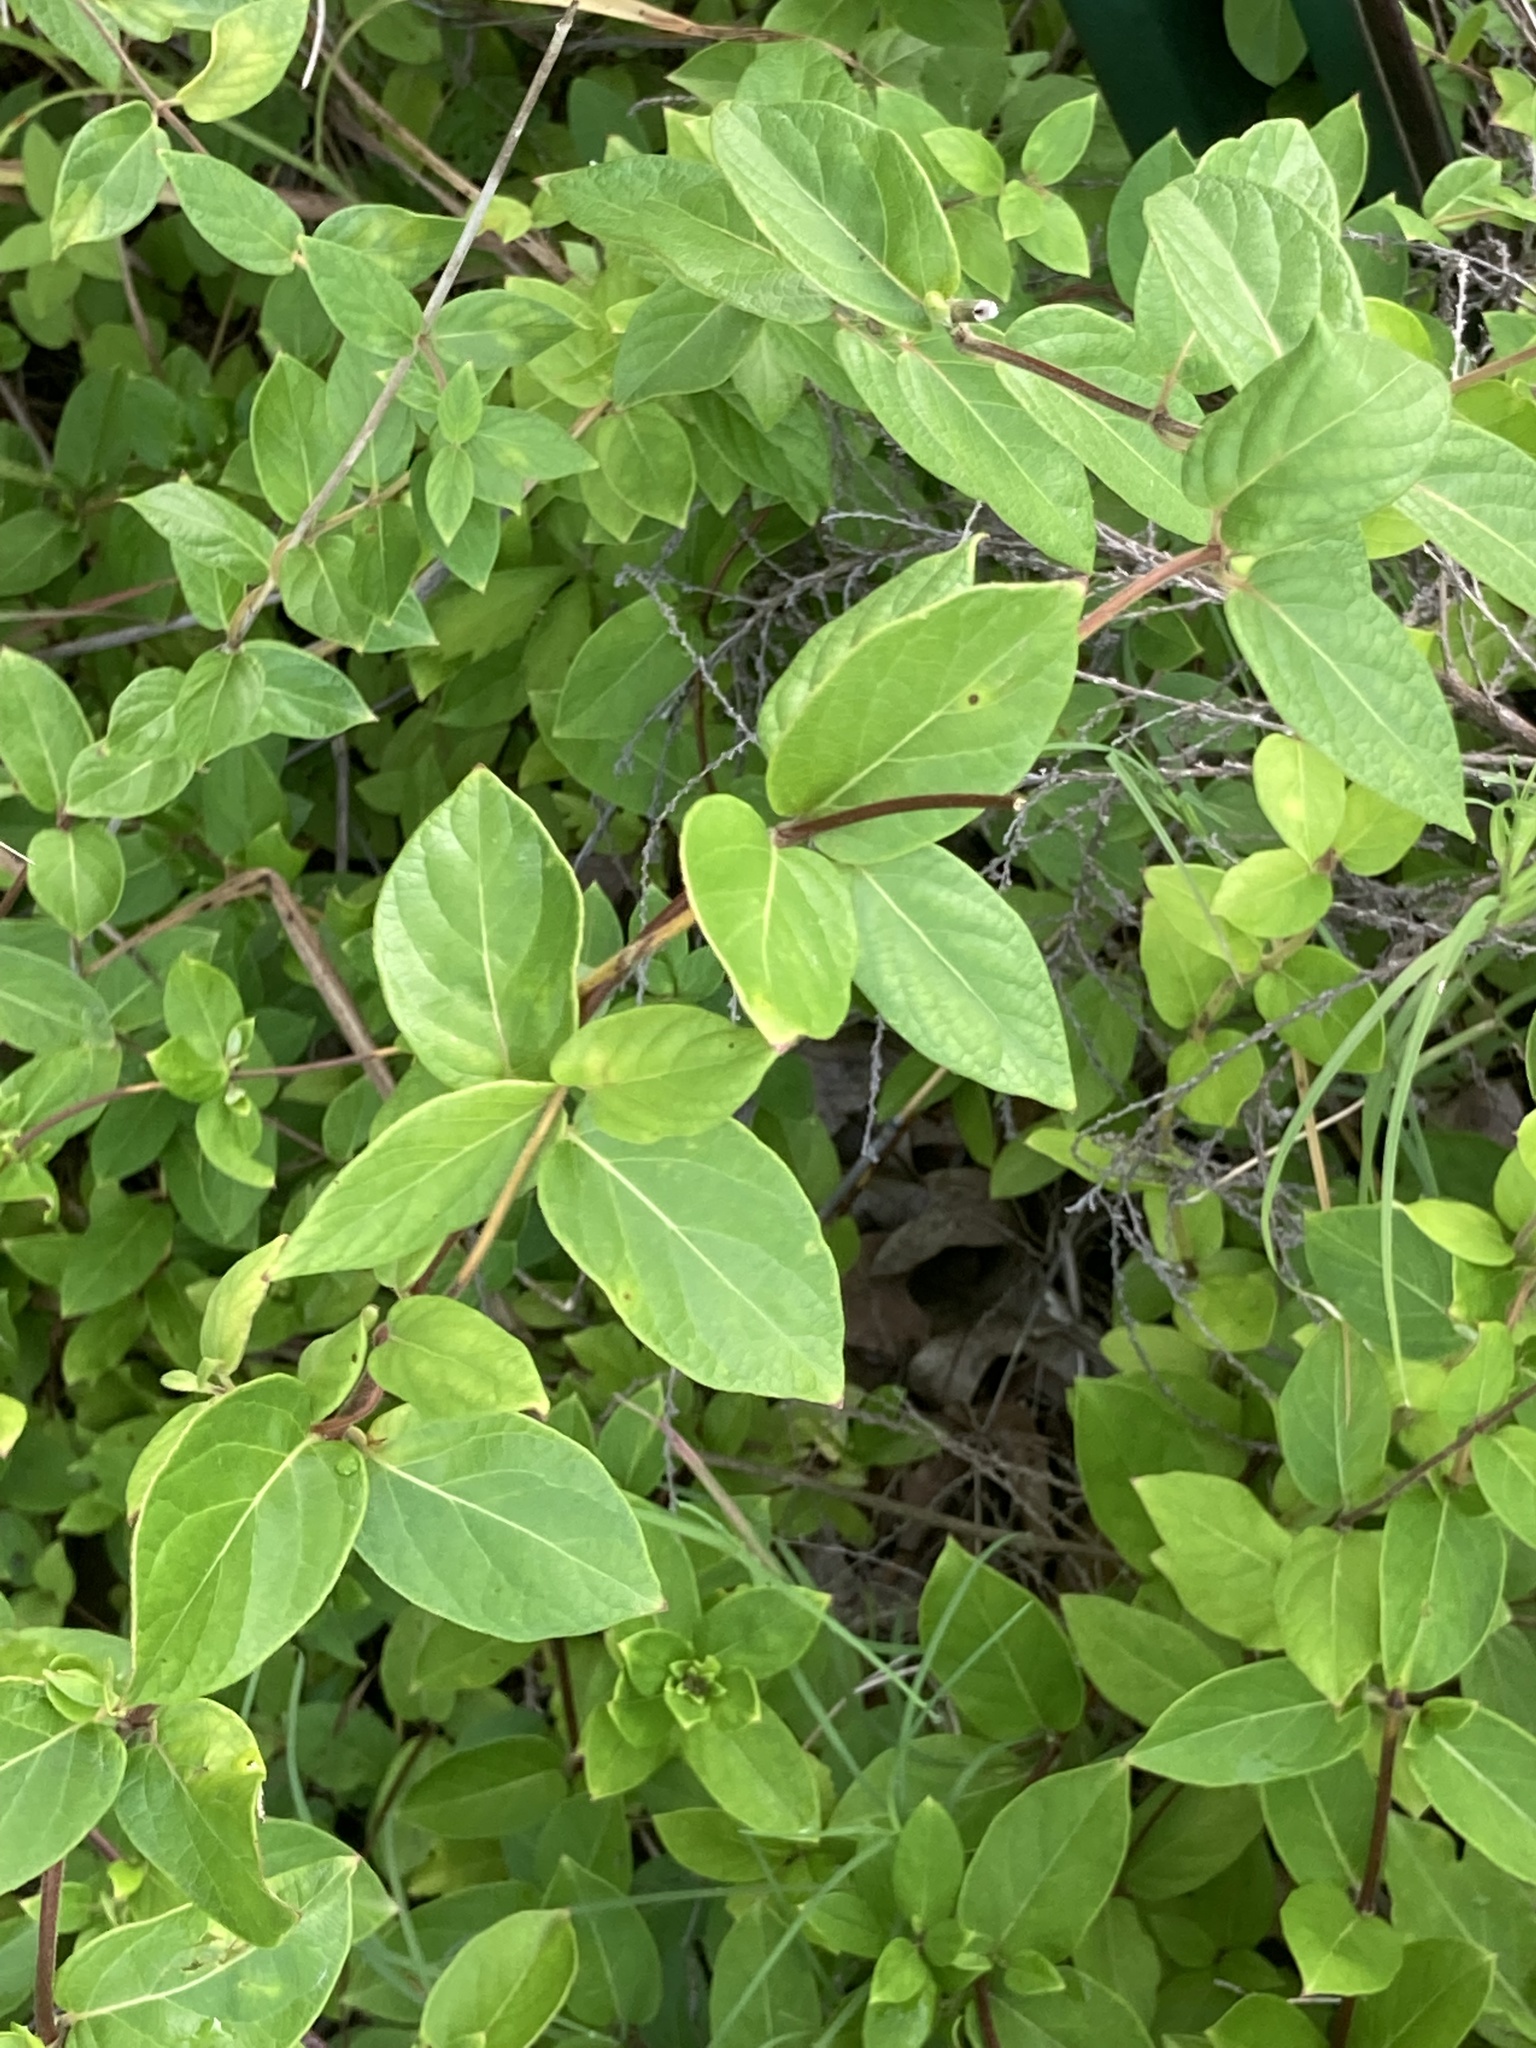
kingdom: Plantae
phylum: Tracheophyta
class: Magnoliopsida
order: Dipsacales
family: Caprifoliaceae
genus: Lonicera
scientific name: Lonicera japonica
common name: Japanese honeysuckle
